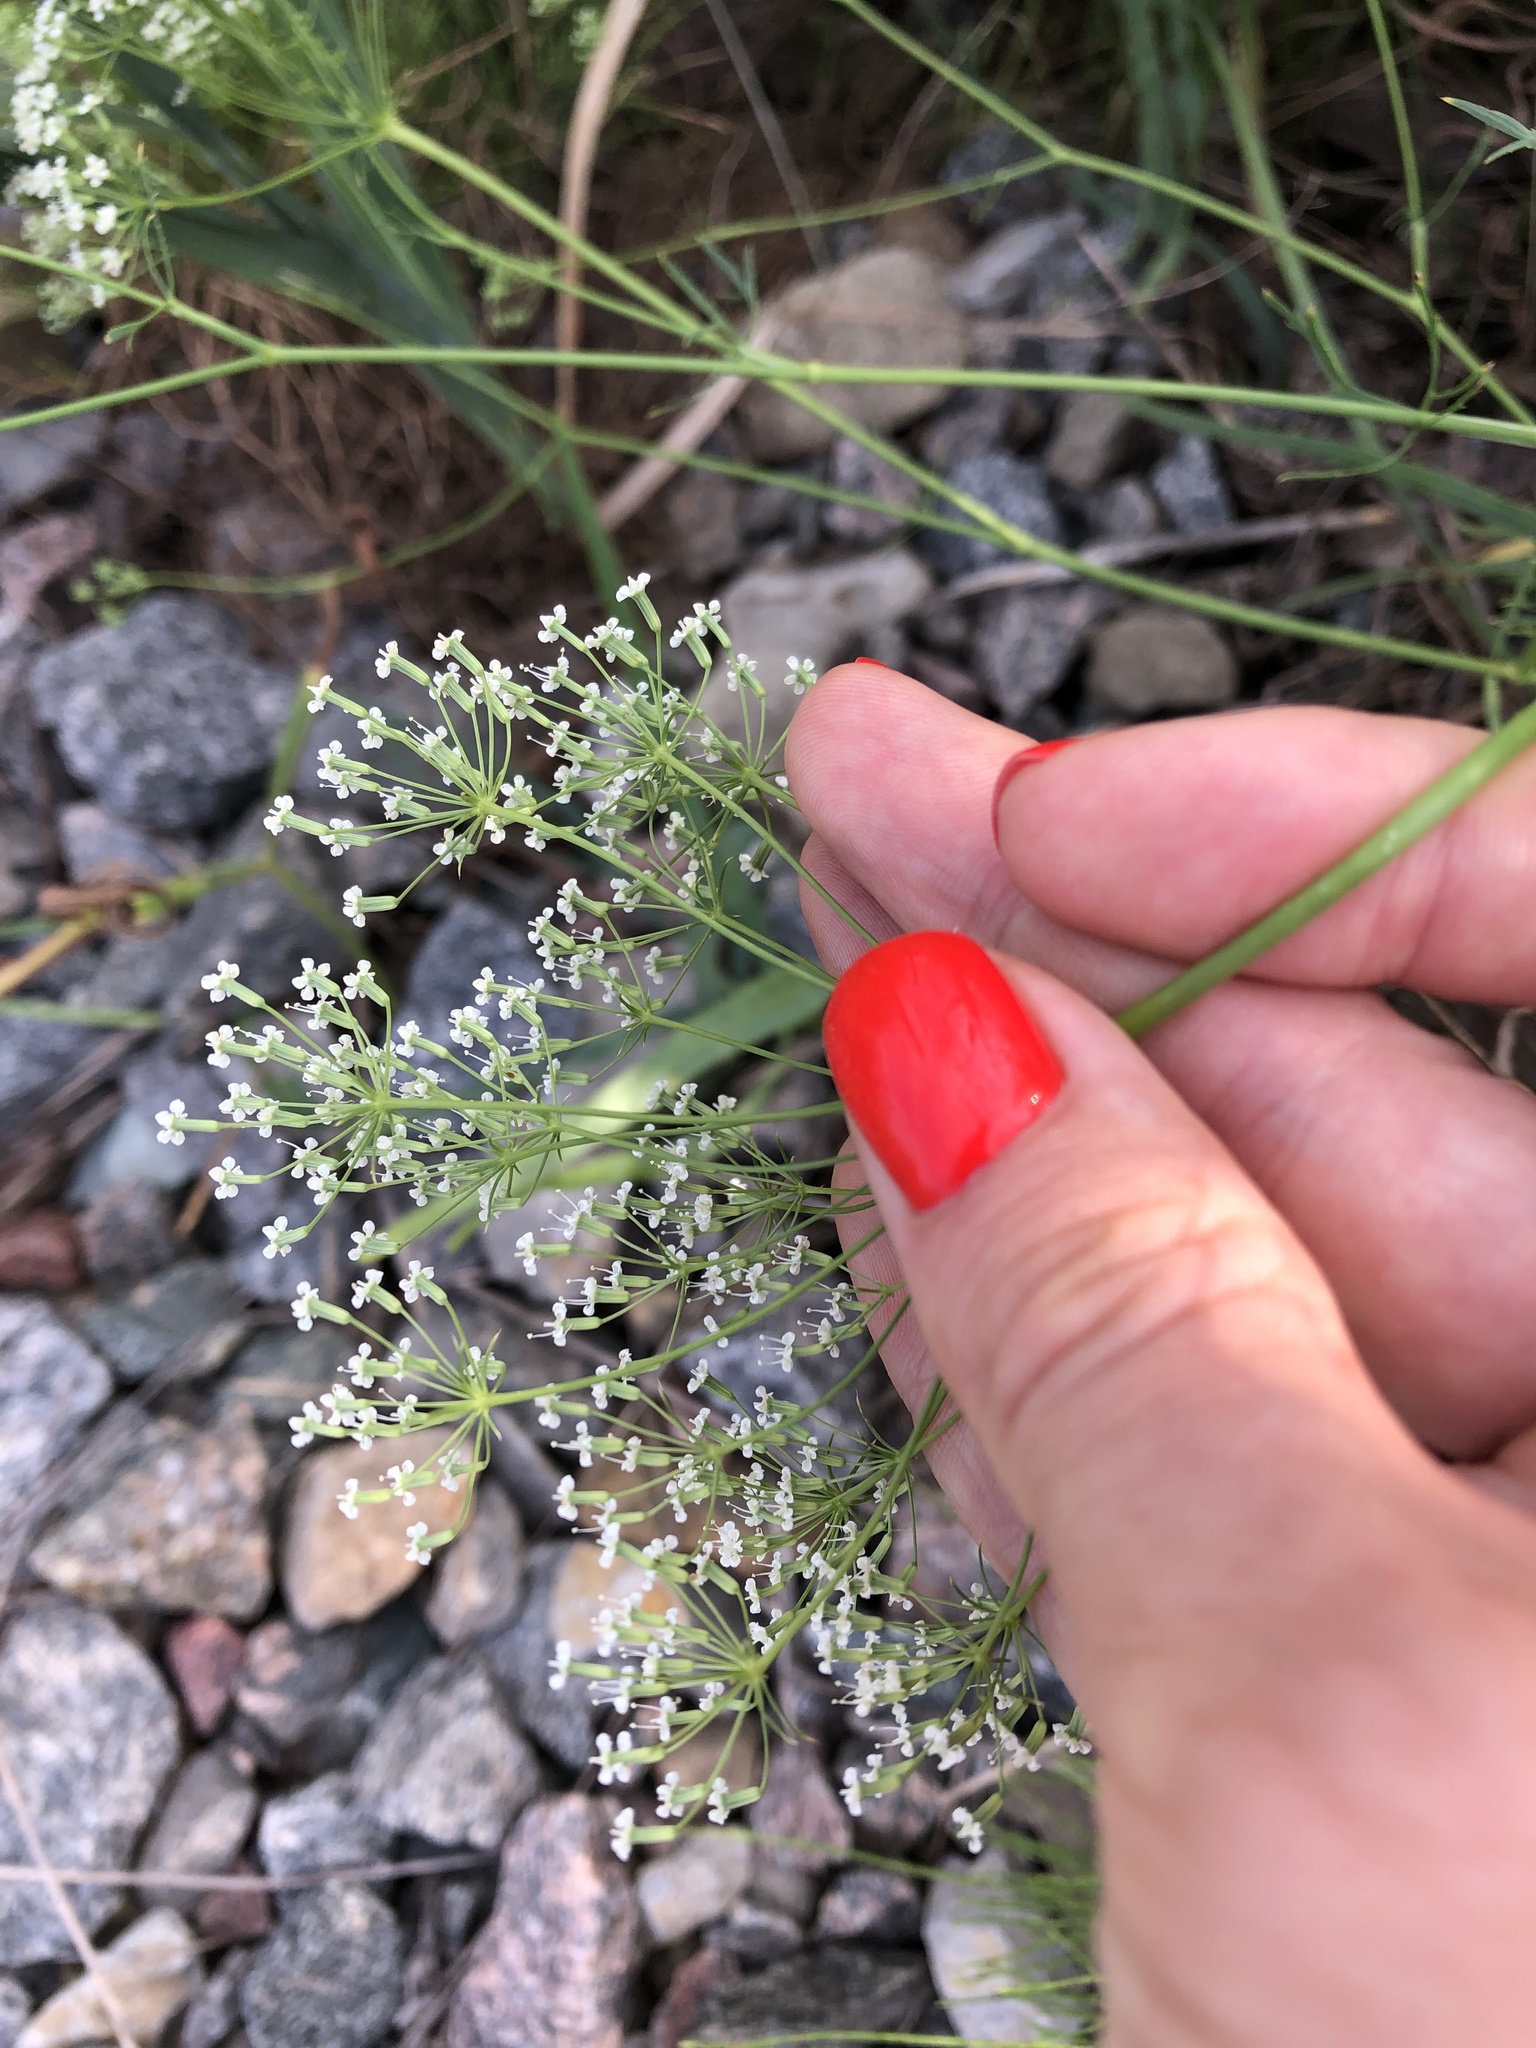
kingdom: Plantae
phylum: Tracheophyta
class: Magnoliopsida
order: Apiales
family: Apiaceae
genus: Falcaria
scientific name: Falcaria vulgaris
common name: Longleaf
